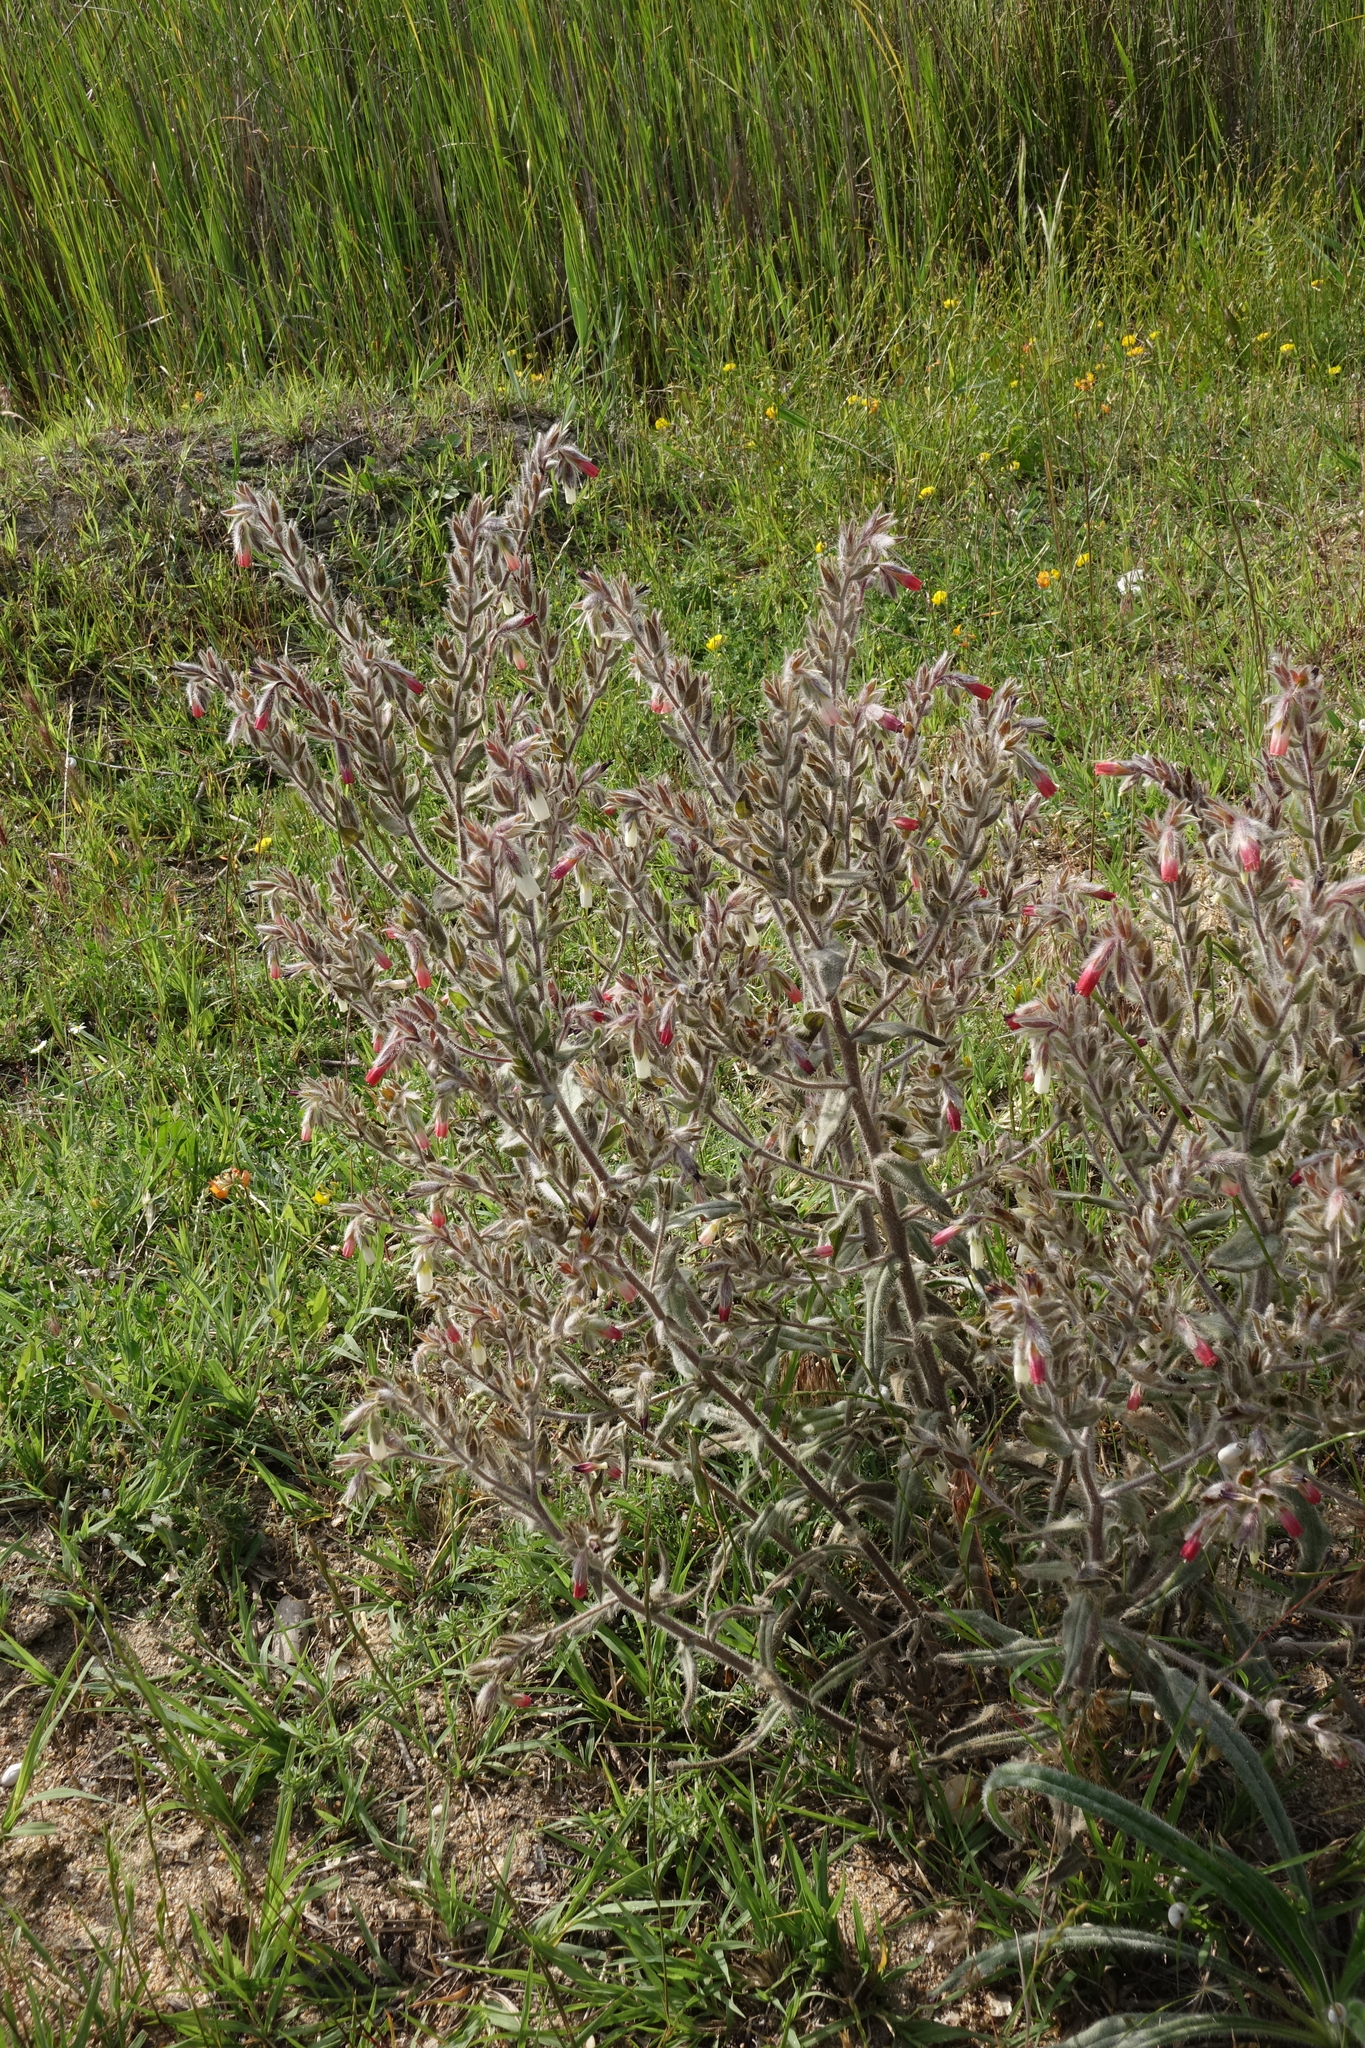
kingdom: Plantae
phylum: Tracheophyta
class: Magnoliopsida
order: Boraginales
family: Boraginaceae
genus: Pontechium
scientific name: Pontechium maculatum
